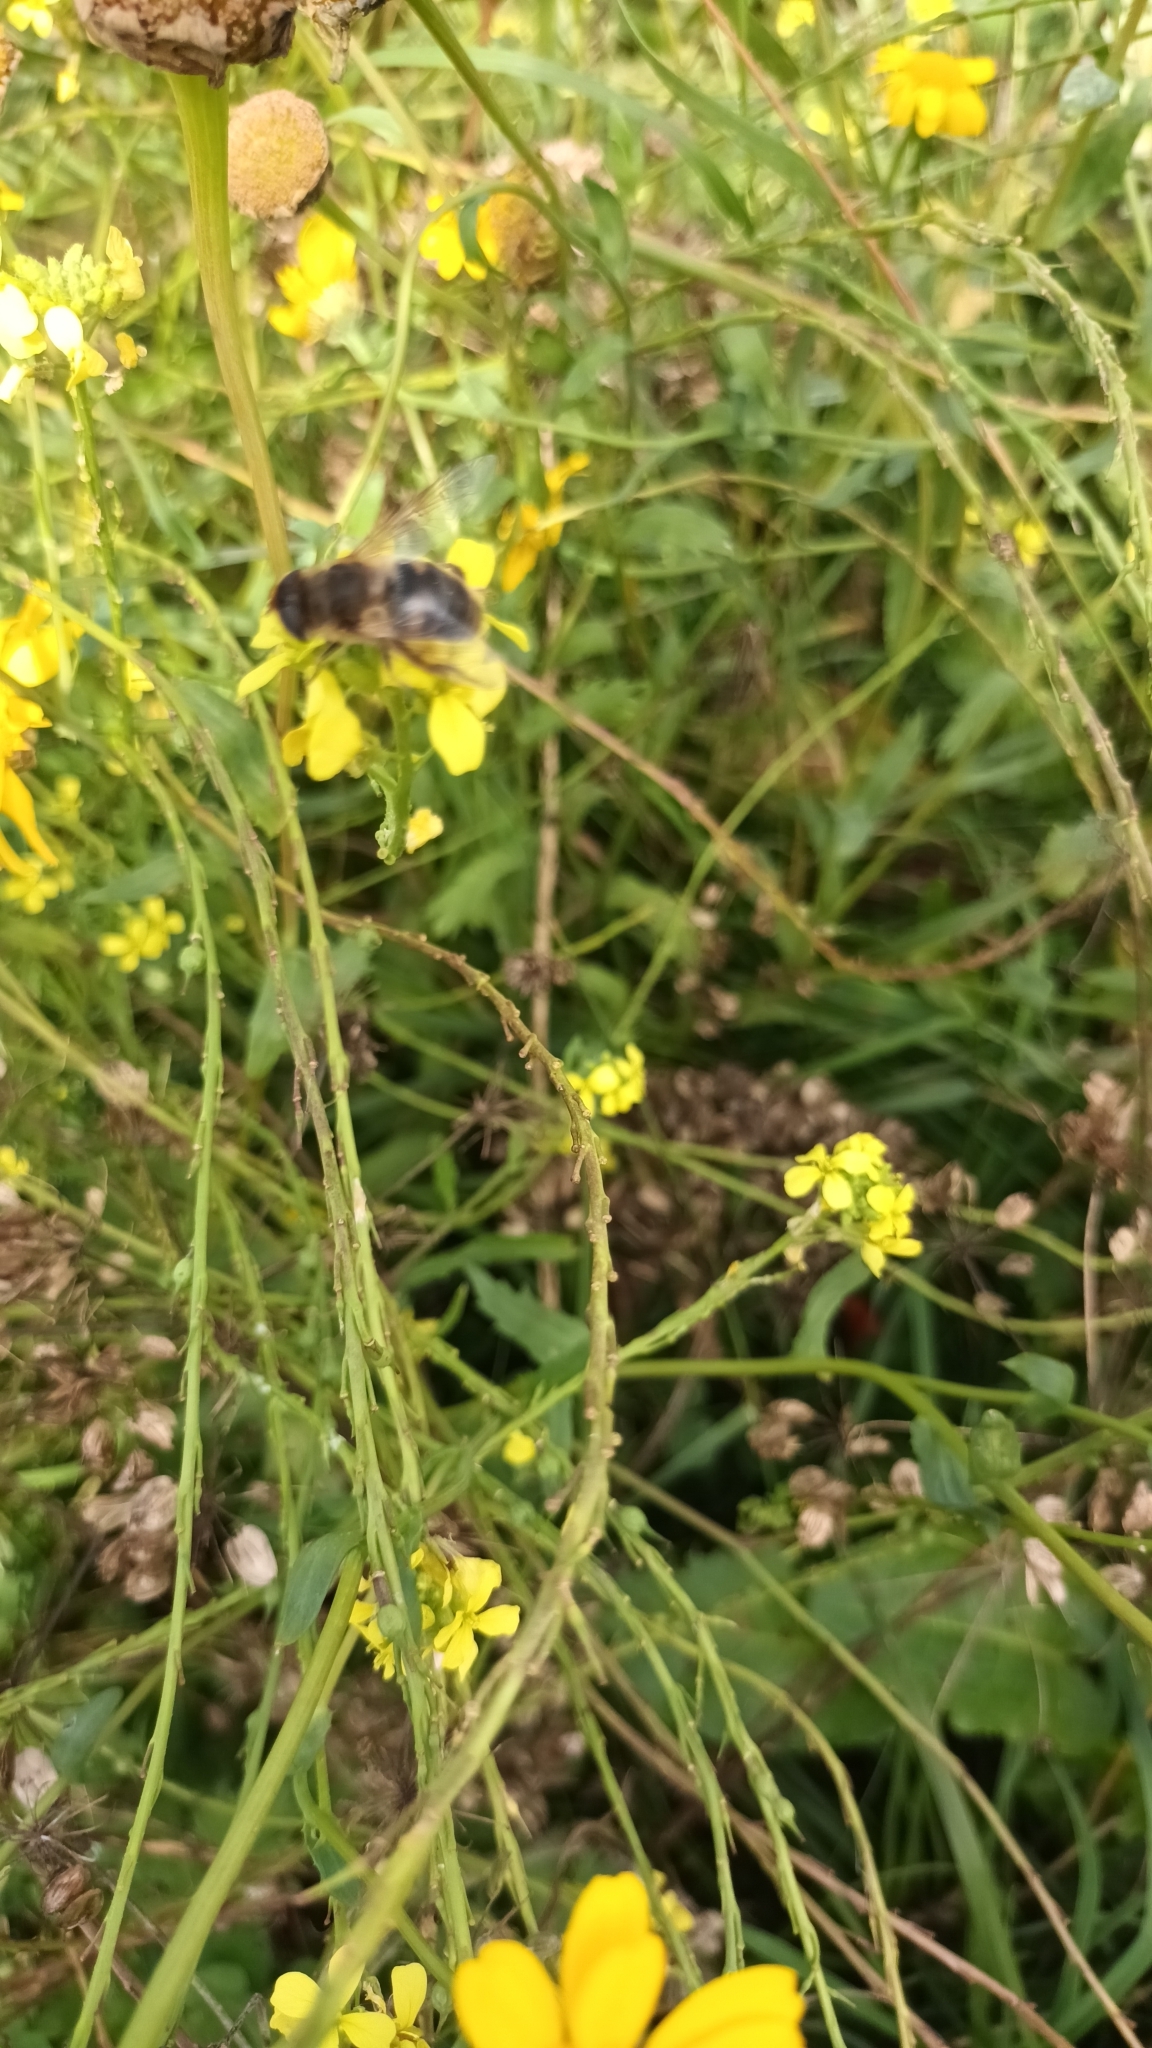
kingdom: Animalia
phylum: Arthropoda
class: Insecta
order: Diptera
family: Syrphidae
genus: Eristalis
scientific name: Eristalis tenax
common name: Drone fly
